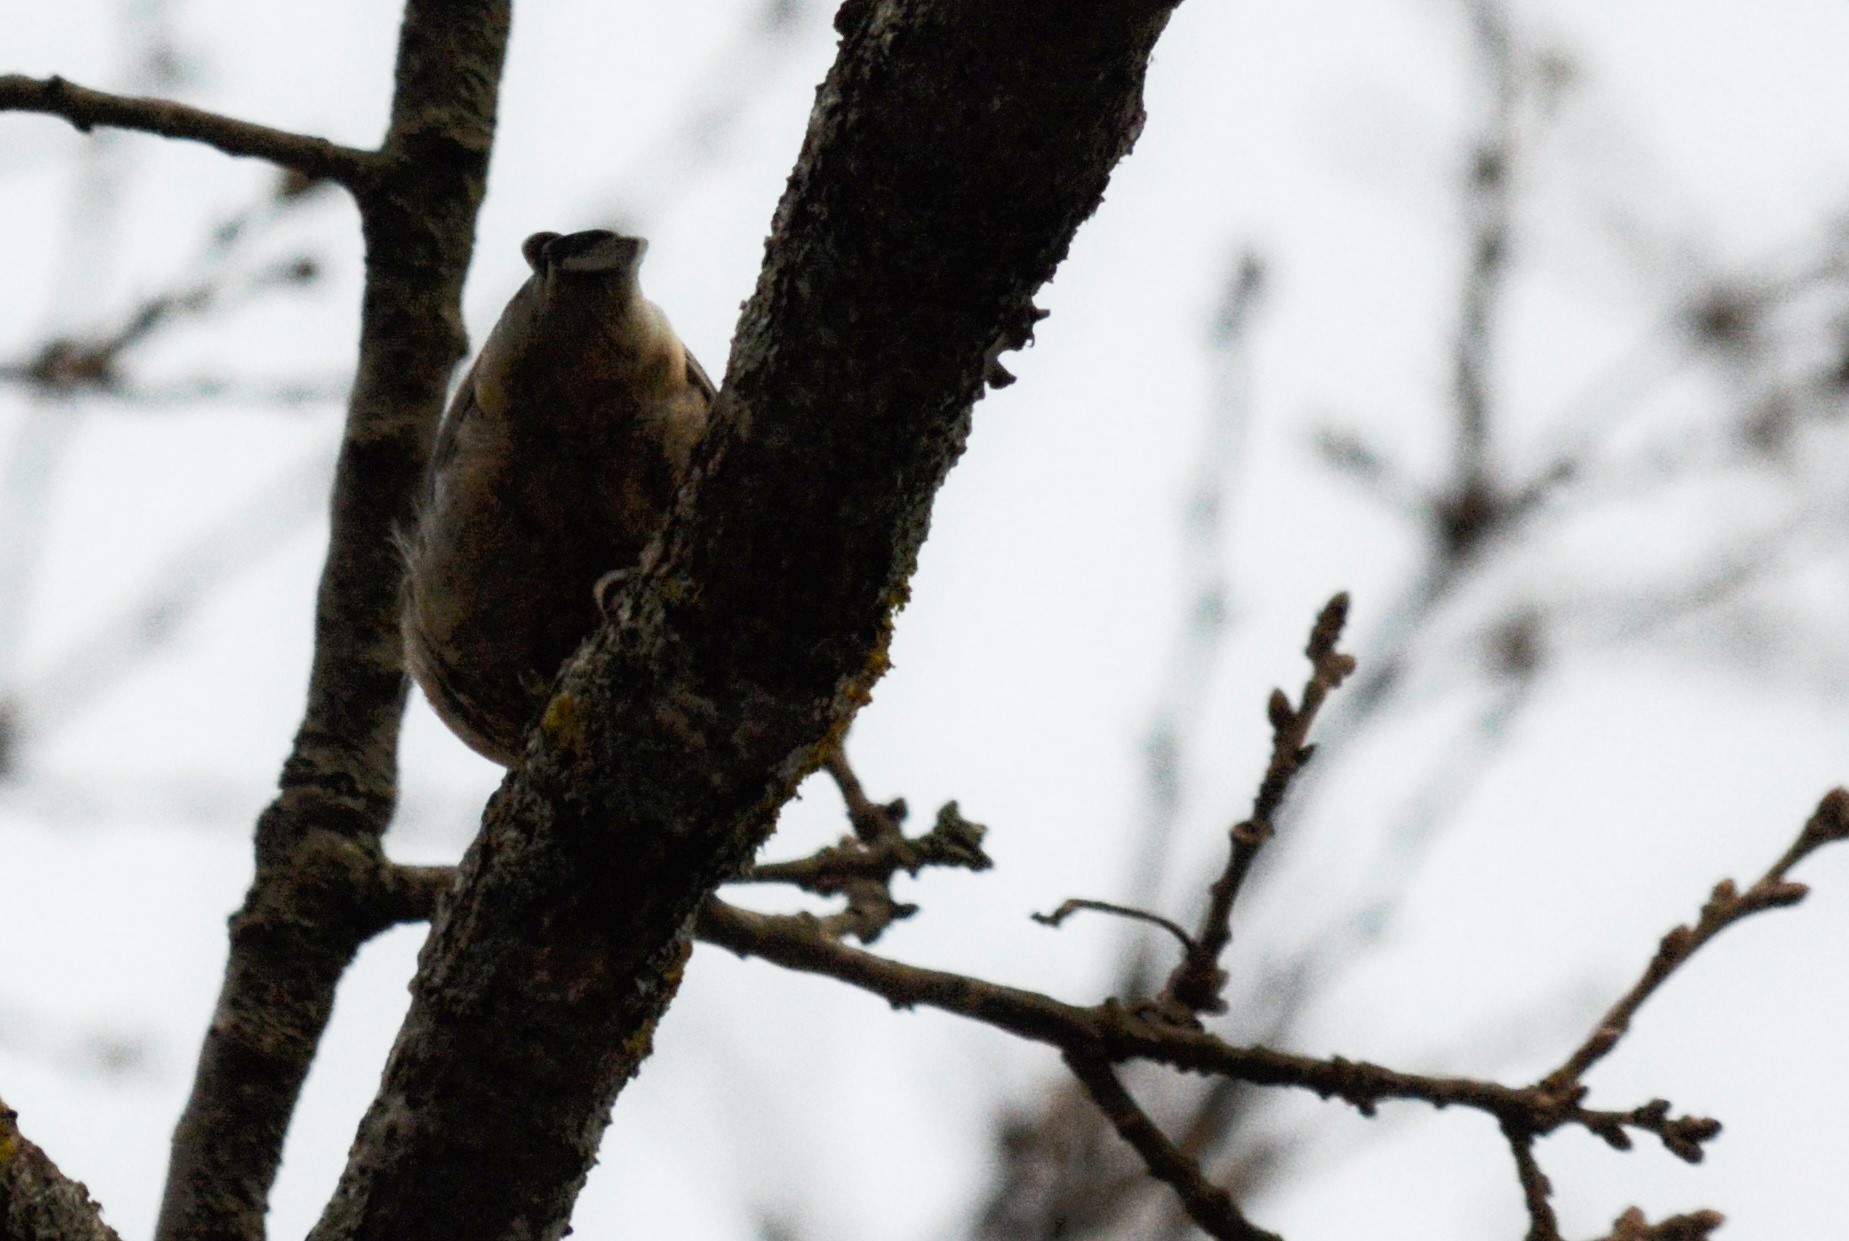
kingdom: Animalia
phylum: Chordata
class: Aves
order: Passeriformes
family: Sittidae
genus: Sitta
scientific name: Sitta ledanti
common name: Algerian nuthatch
